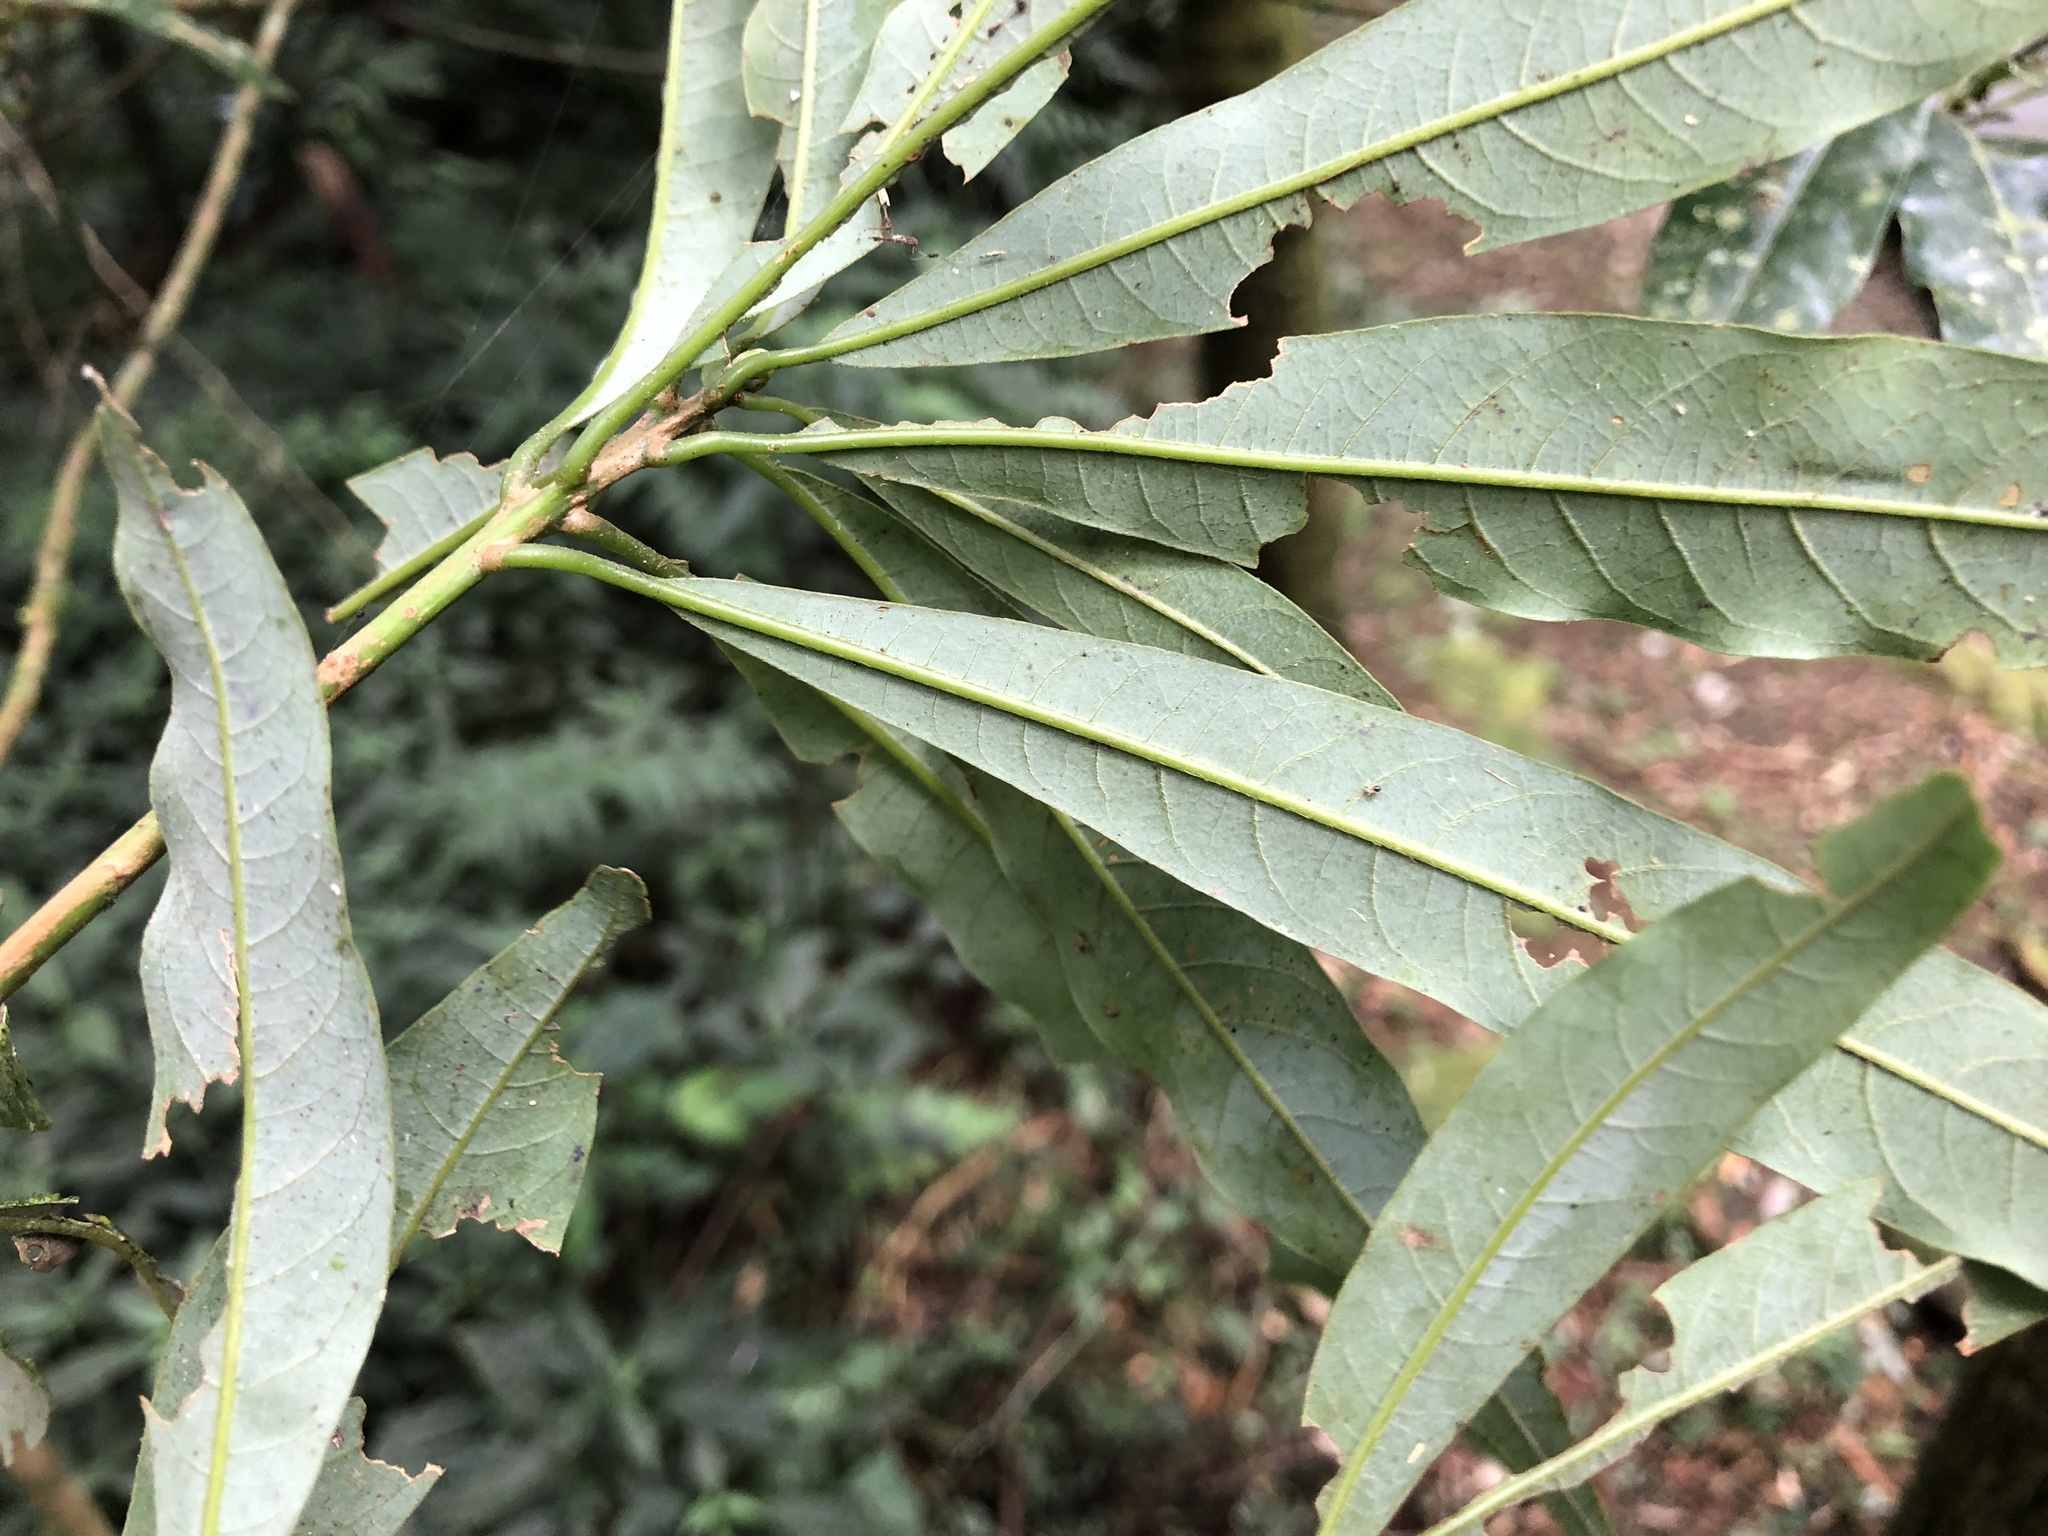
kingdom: Plantae
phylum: Tracheophyta
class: Magnoliopsida
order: Laurales
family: Lauraceae
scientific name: Lauraceae
